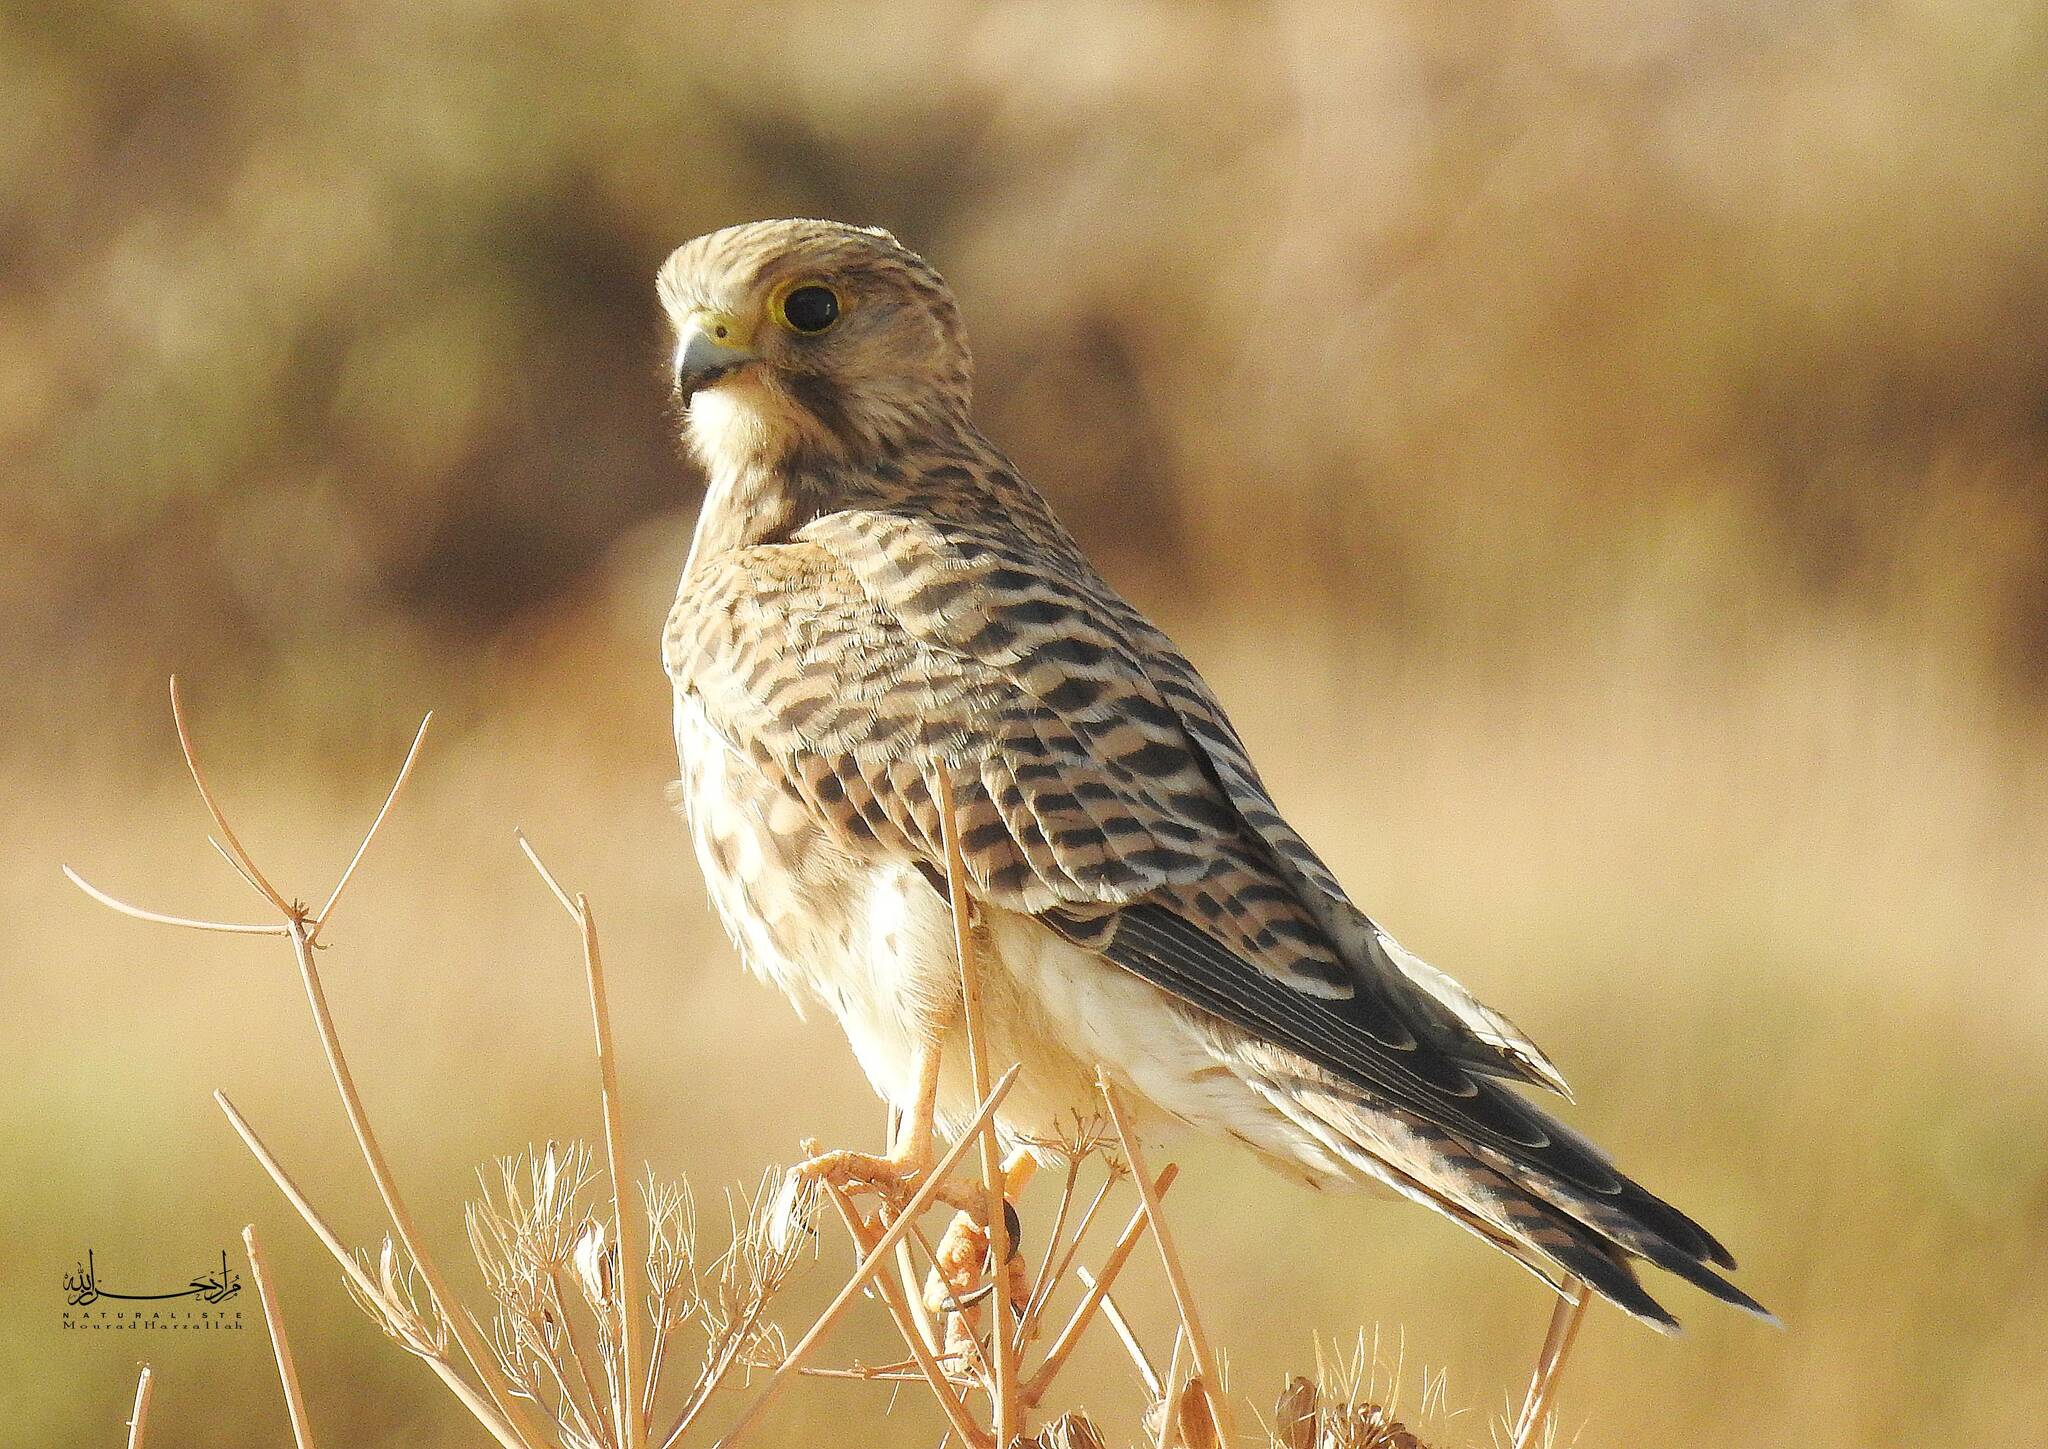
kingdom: Animalia
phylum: Chordata
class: Aves
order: Falconiformes
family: Falconidae
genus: Falco
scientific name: Falco tinnunculus
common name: Common kestrel
